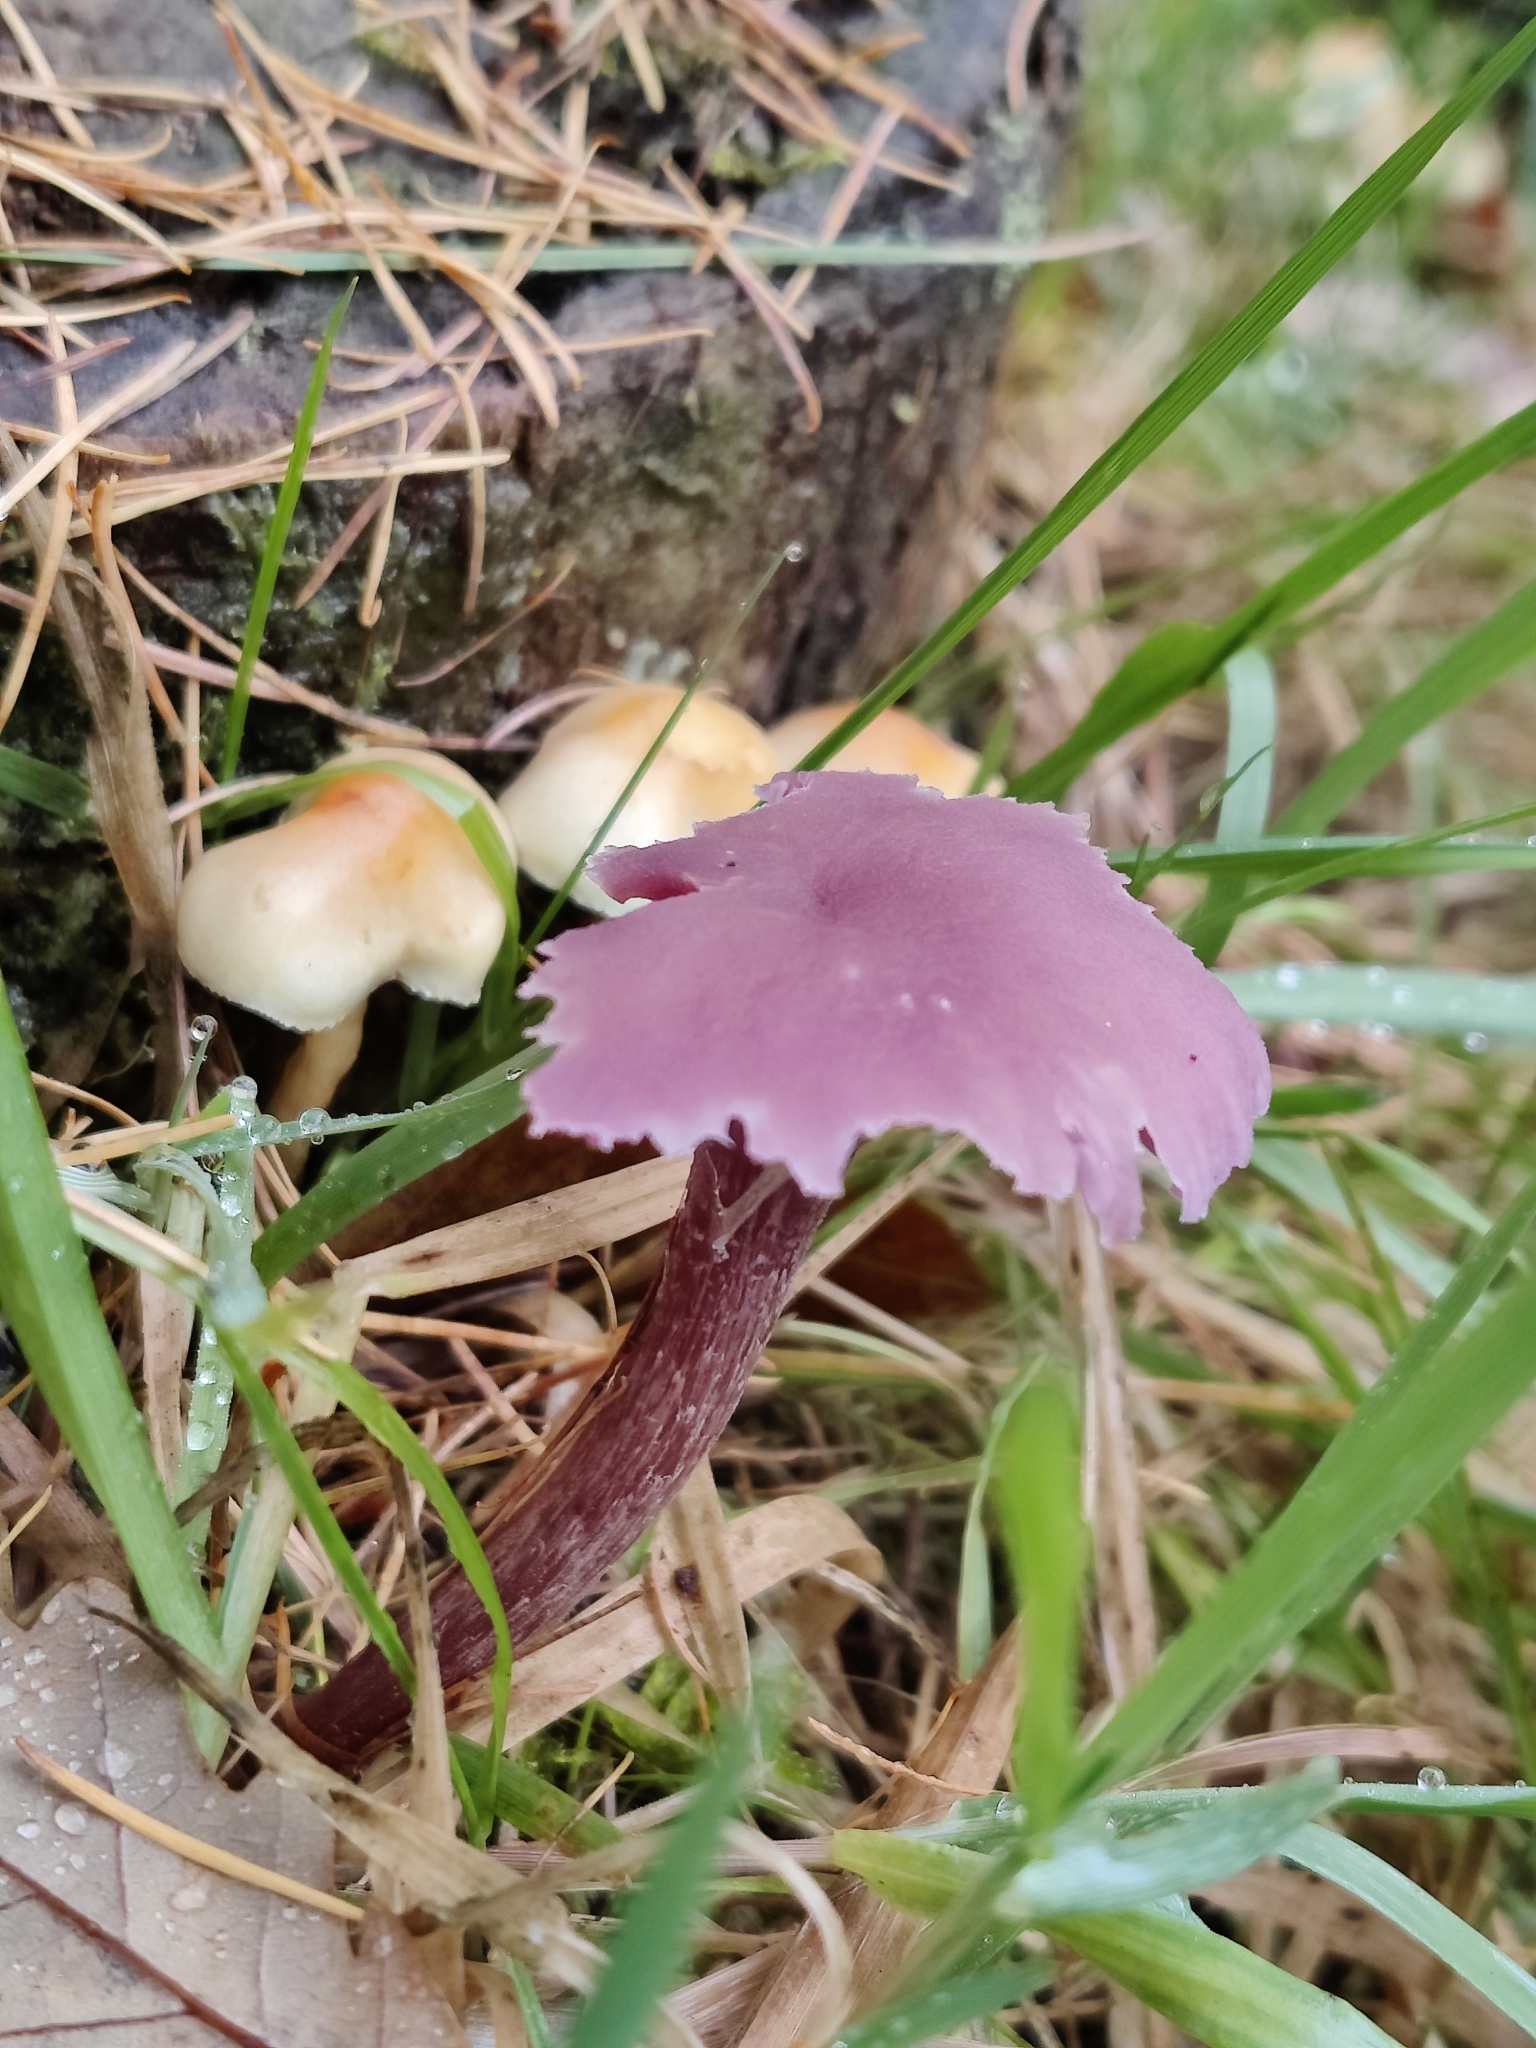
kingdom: Fungi
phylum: Basidiomycota
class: Agaricomycetes
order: Agaricales
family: Hydnangiaceae
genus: Laccaria
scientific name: Laccaria amethystina
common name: Amethyst deceiver
